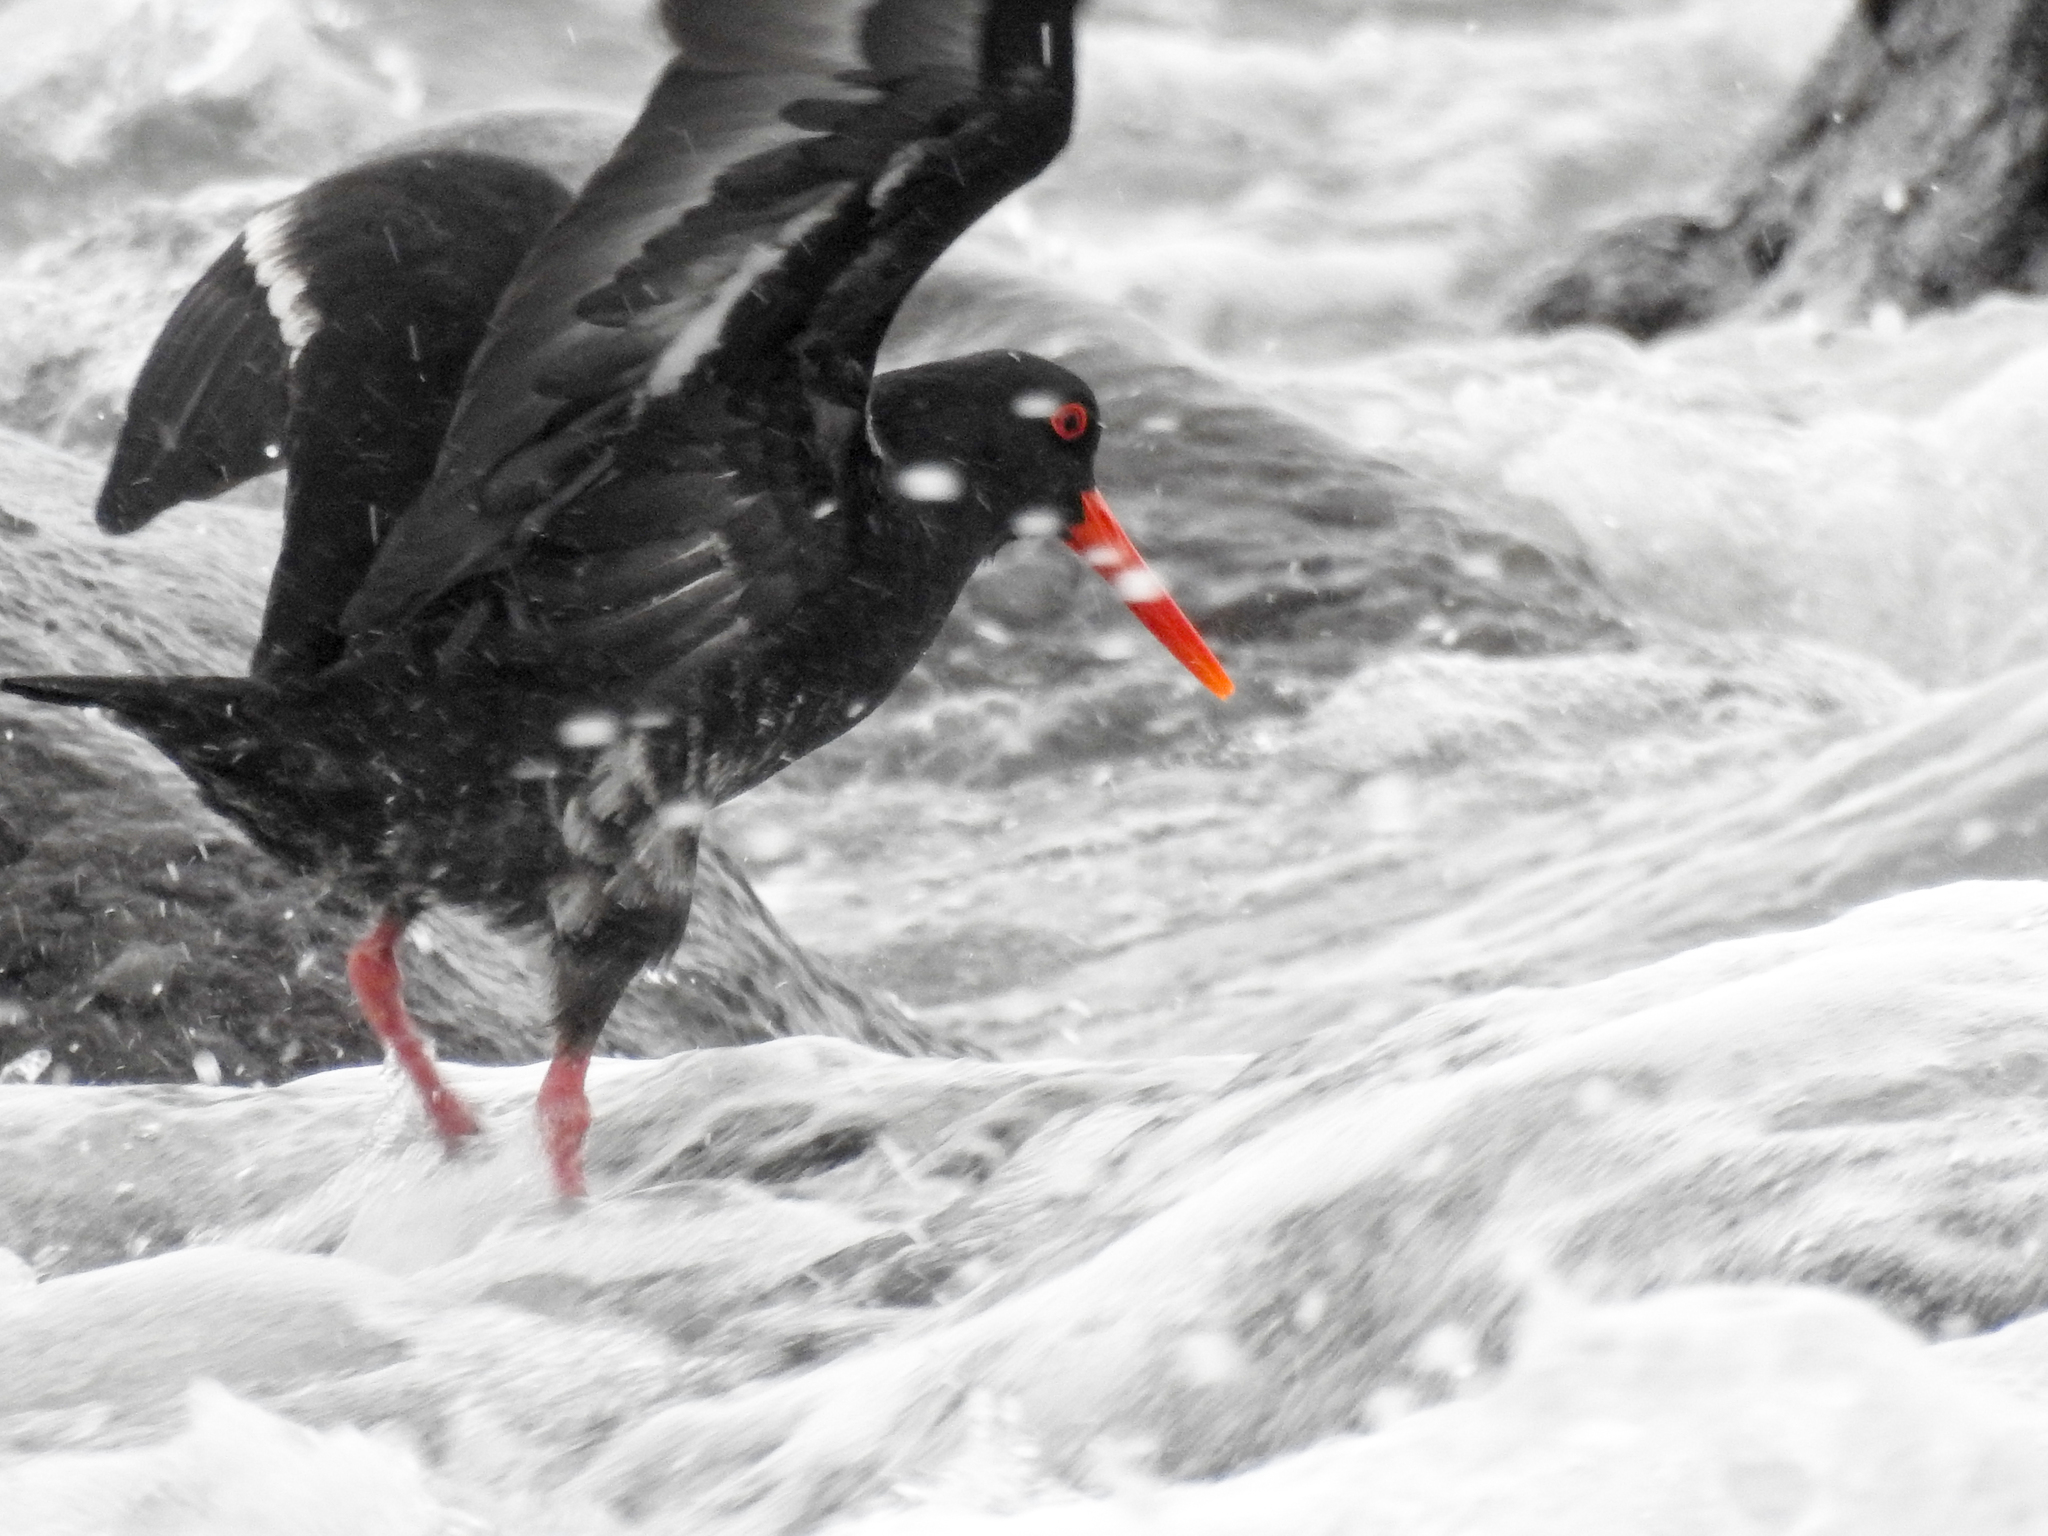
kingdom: Animalia
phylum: Chordata
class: Aves
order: Charadriiformes
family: Haematopodidae
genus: Haematopus
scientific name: Haematopus unicolor
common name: Variable oystercatcher
